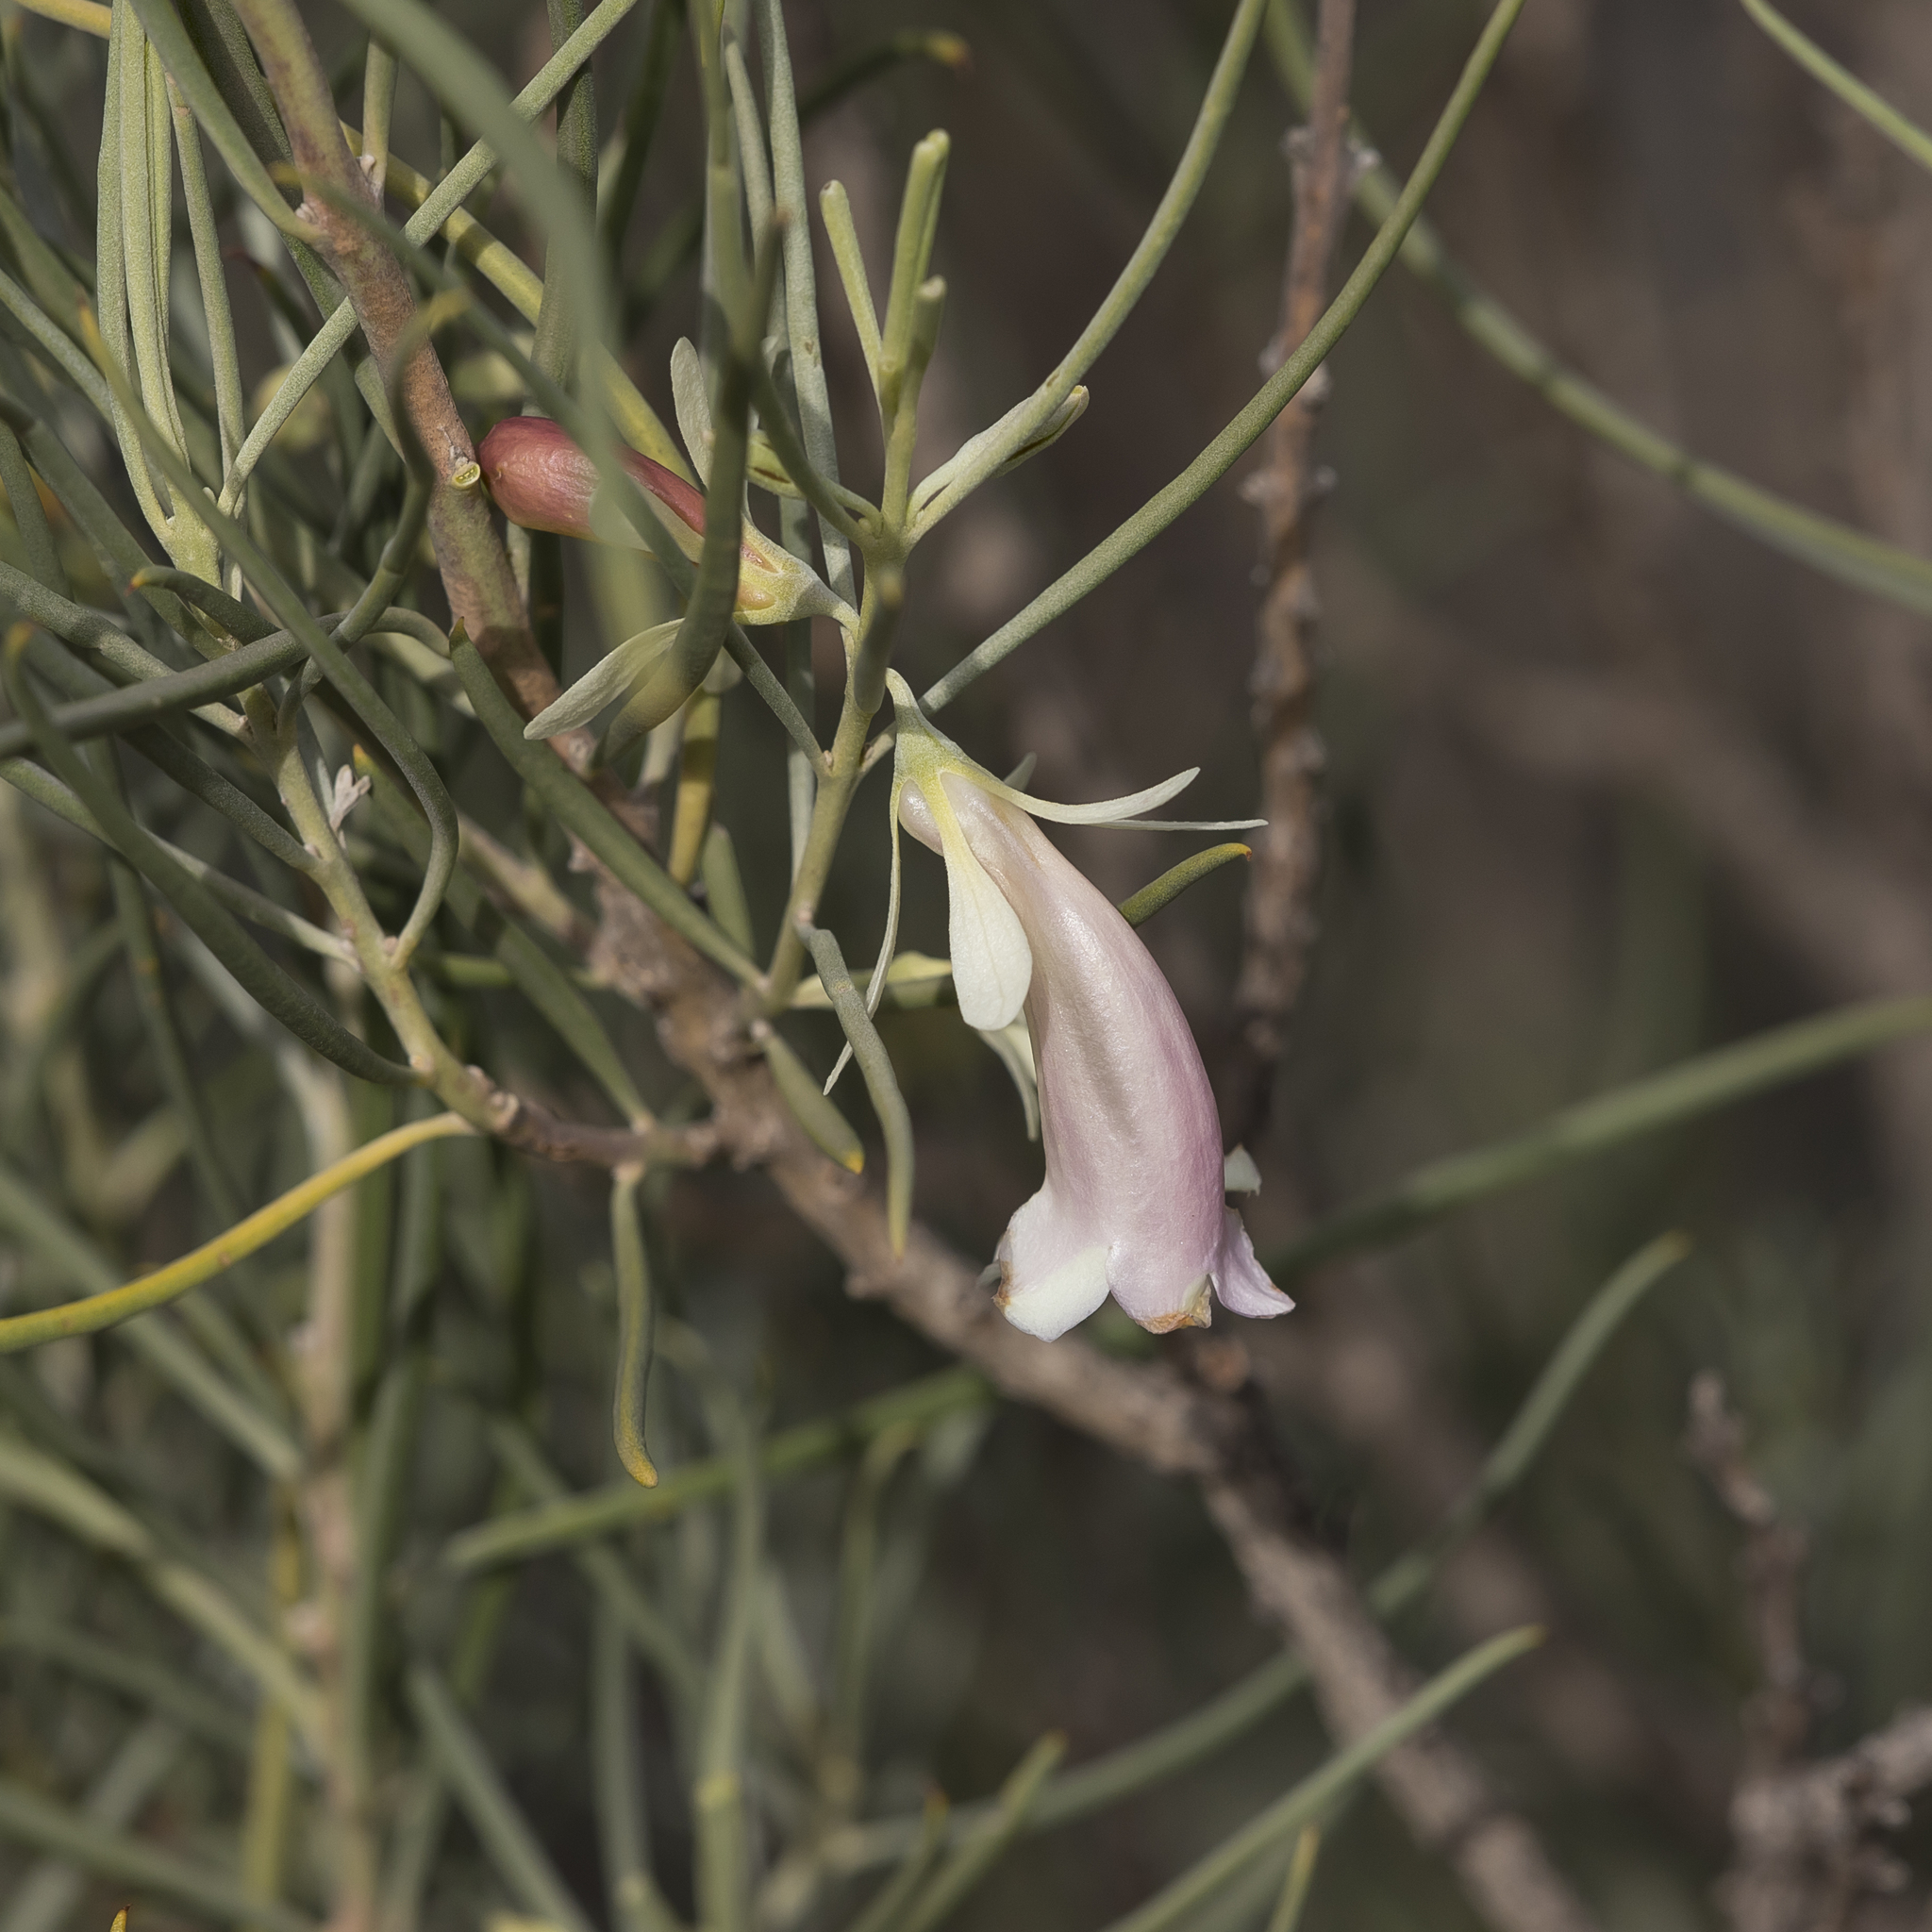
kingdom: Plantae
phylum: Tracheophyta
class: Magnoliopsida
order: Lamiales
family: Scrophulariaceae
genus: Eremophila
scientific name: Eremophila oppositifolia
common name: Mountain-sandalwood
